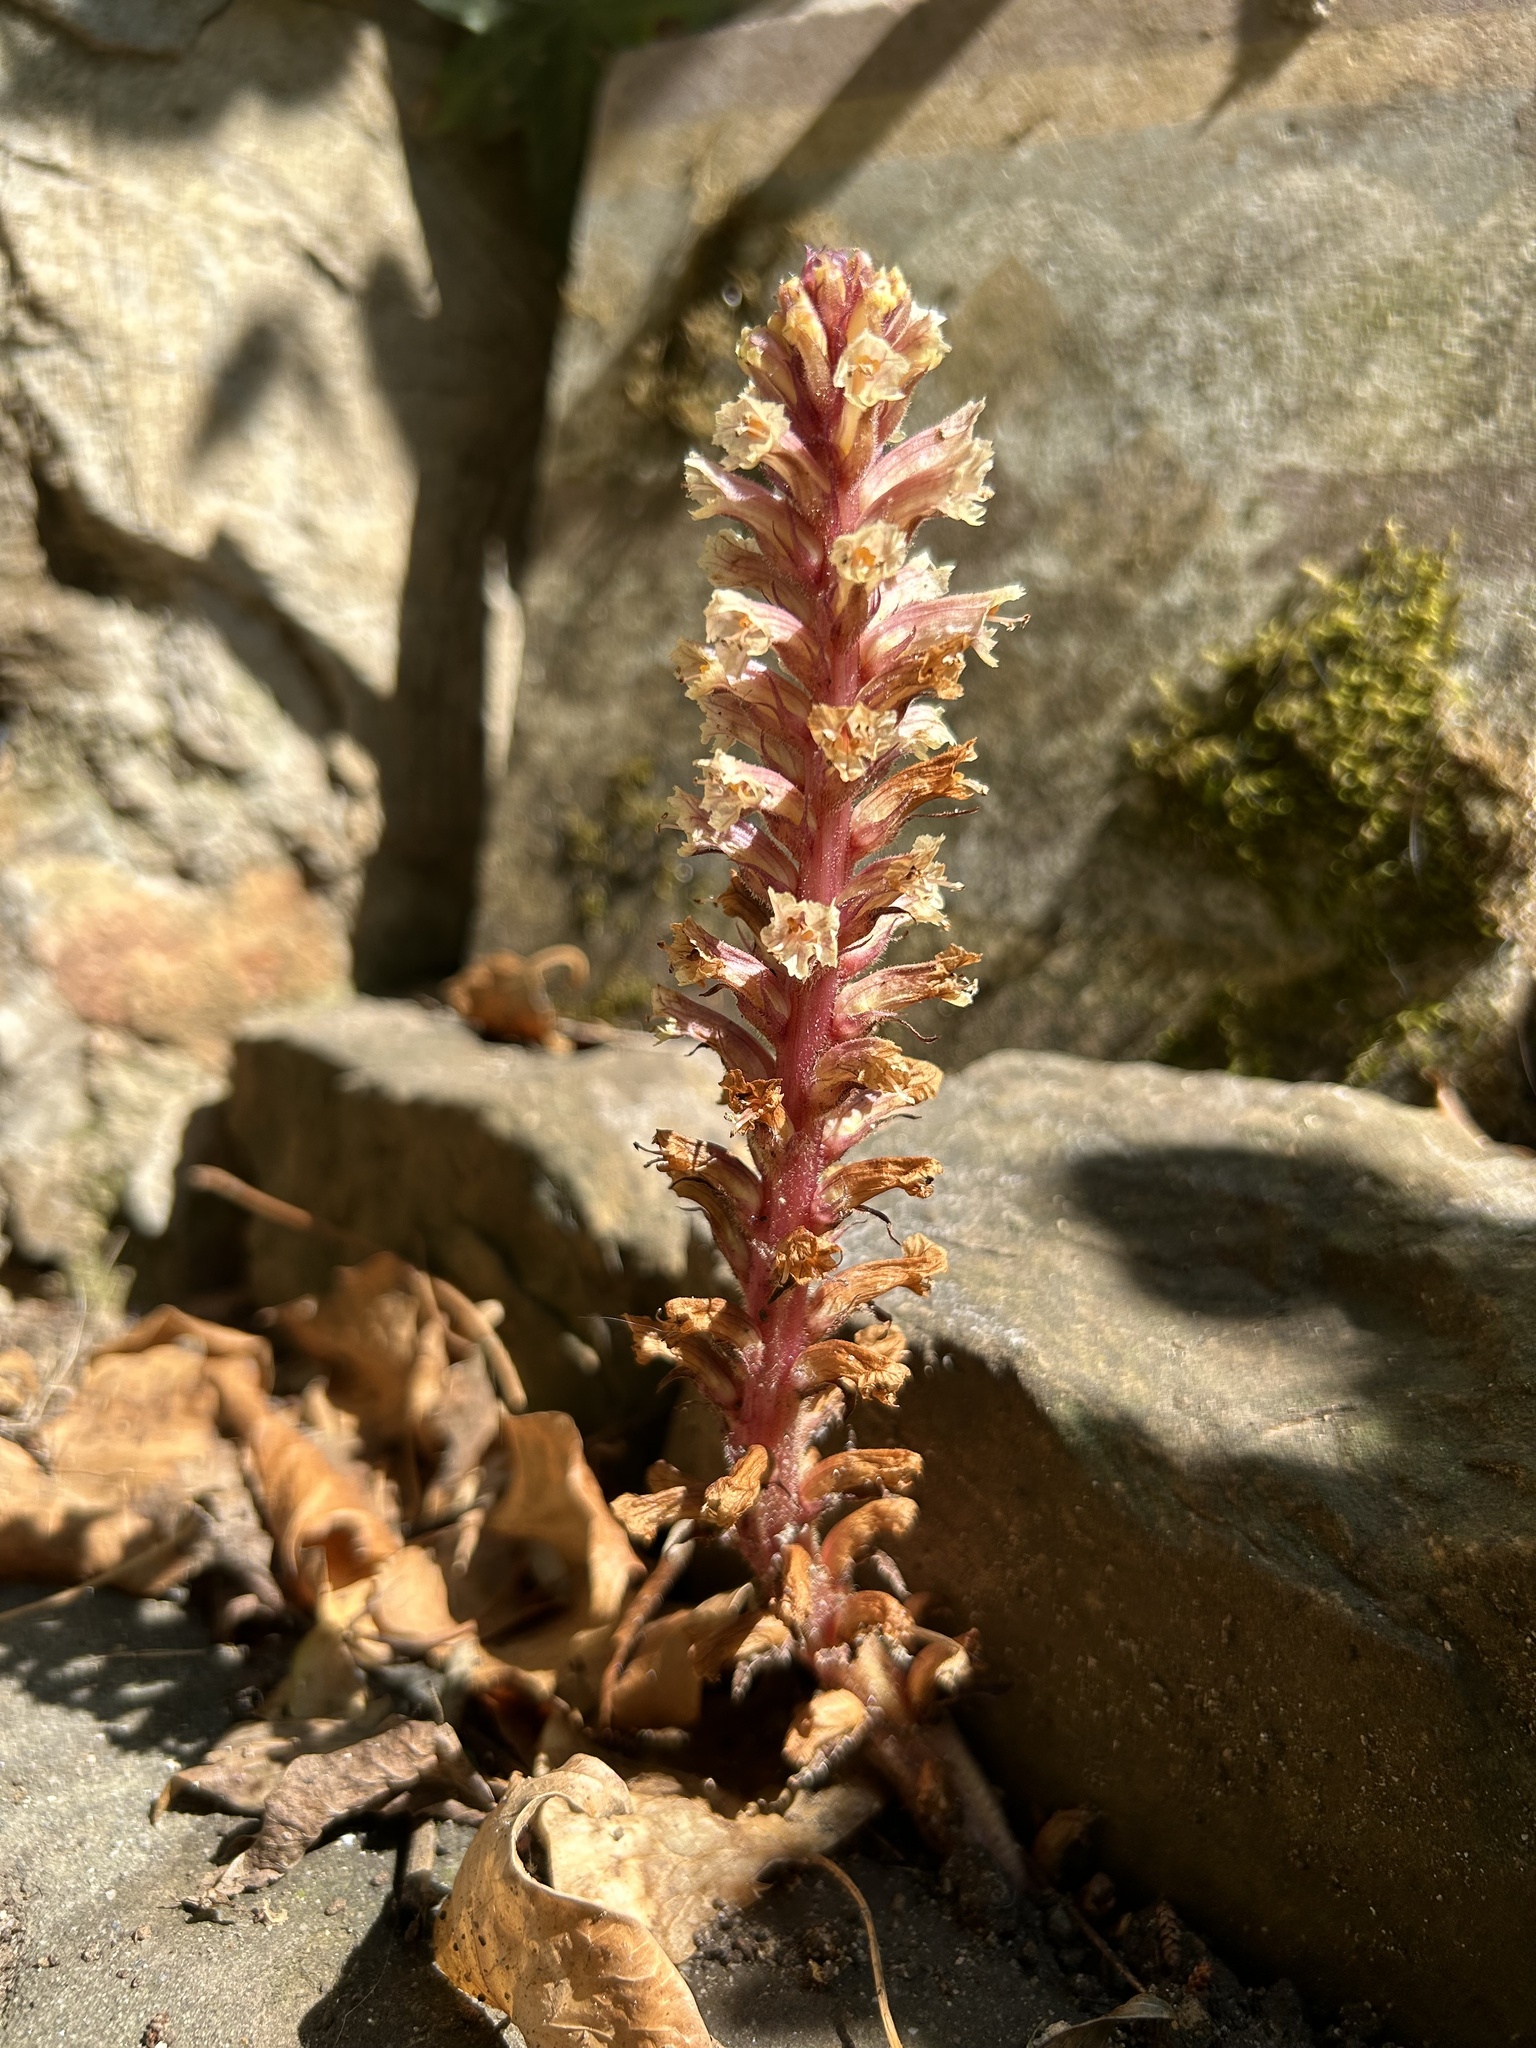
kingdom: Plantae
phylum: Tracheophyta
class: Magnoliopsida
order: Lamiales
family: Orobanchaceae
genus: Orobanche
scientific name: Orobanche hederae
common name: Ivy broomrape
